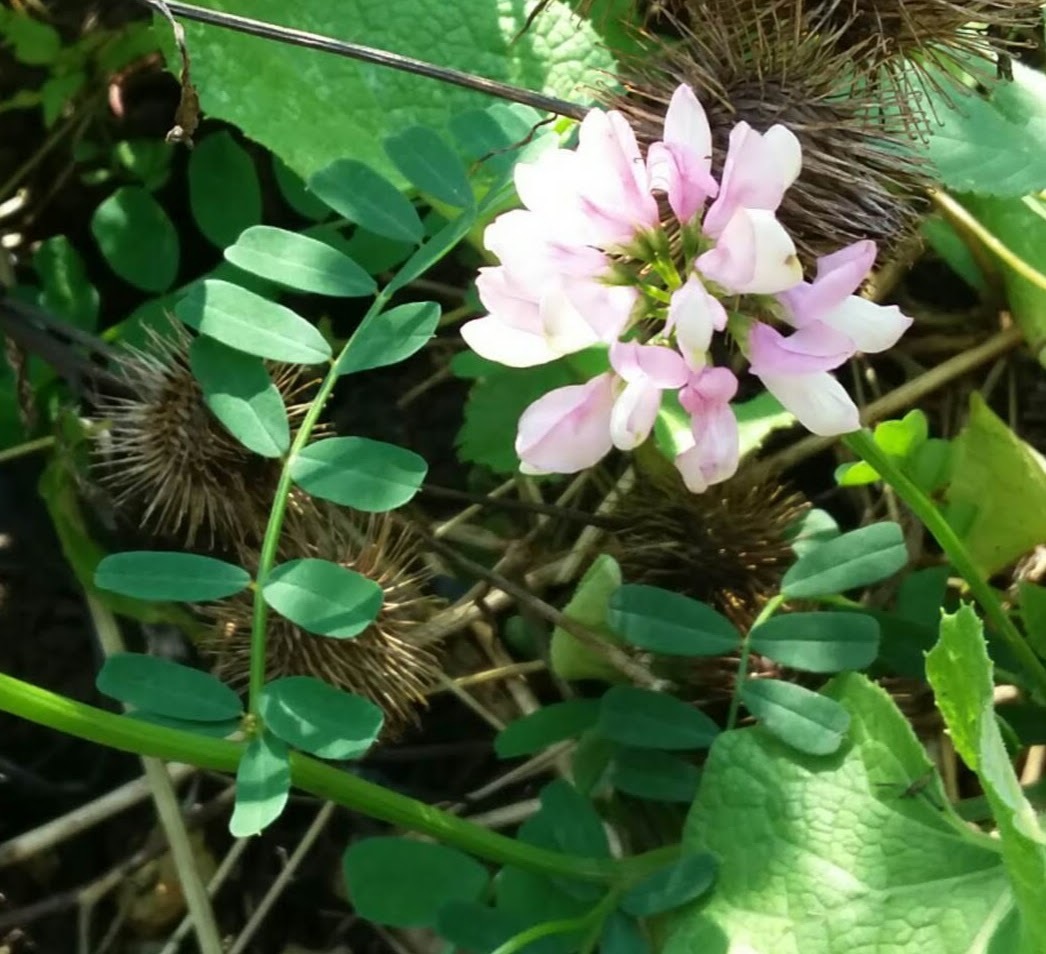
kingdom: Plantae
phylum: Tracheophyta
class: Magnoliopsida
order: Fabales
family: Fabaceae
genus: Coronilla
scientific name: Coronilla varia
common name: Crownvetch
